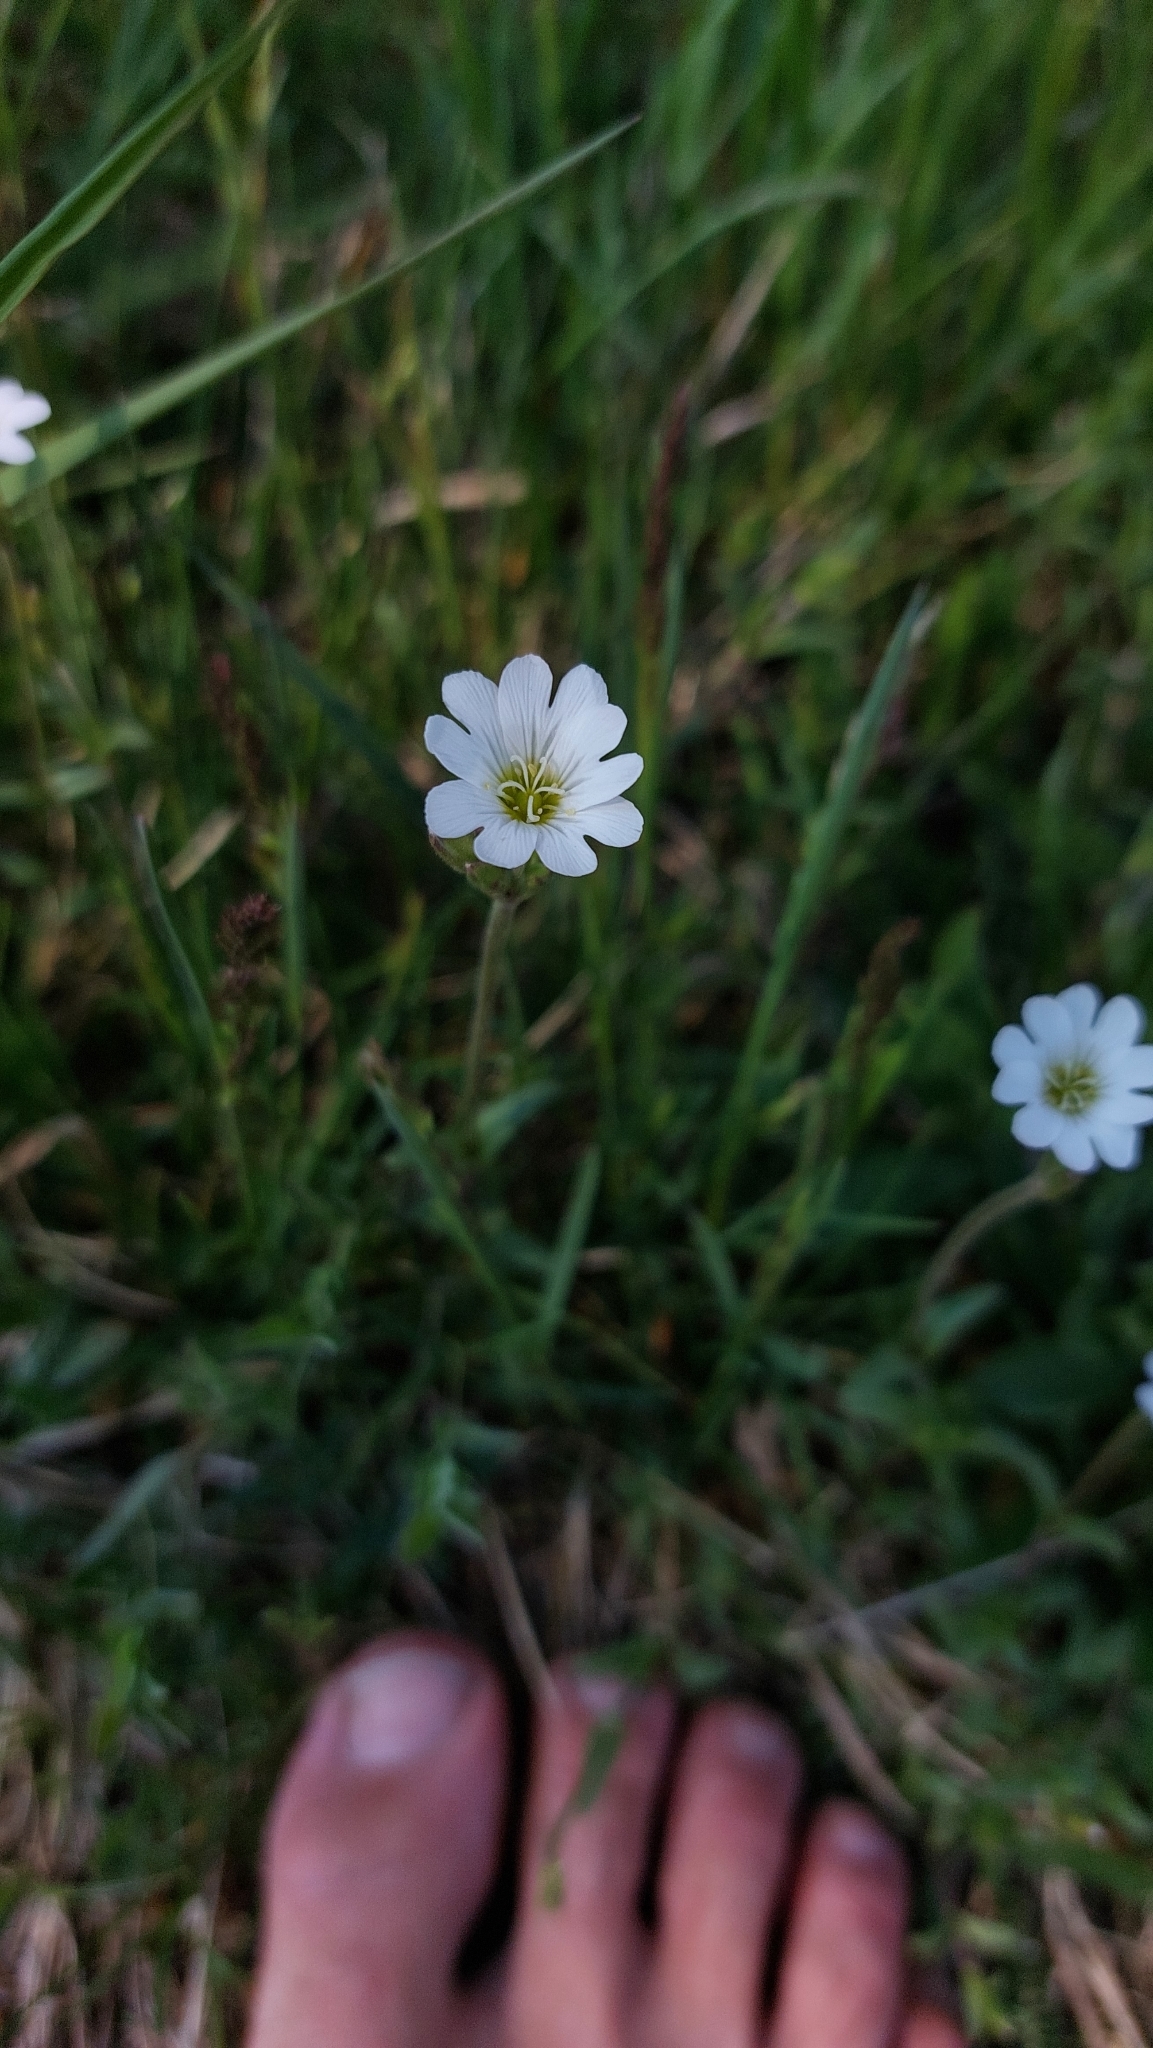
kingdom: Plantae
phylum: Tracheophyta
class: Magnoliopsida
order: Caryophyllales
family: Caryophyllaceae
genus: Cerastium
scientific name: Cerastium arvense
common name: Field mouse-ear
